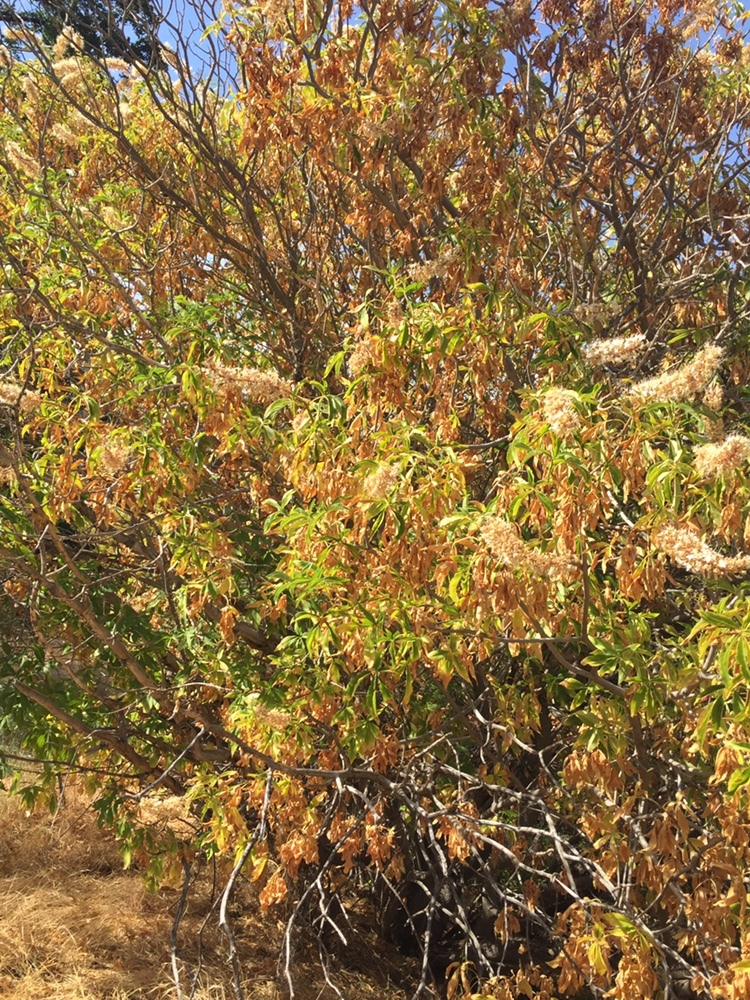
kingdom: Plantae
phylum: Tracheophyta
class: Magnoliopsida
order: Sapindales
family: Sapindaceae
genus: Aesculus
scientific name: Aesculus californica
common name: California buckeye
